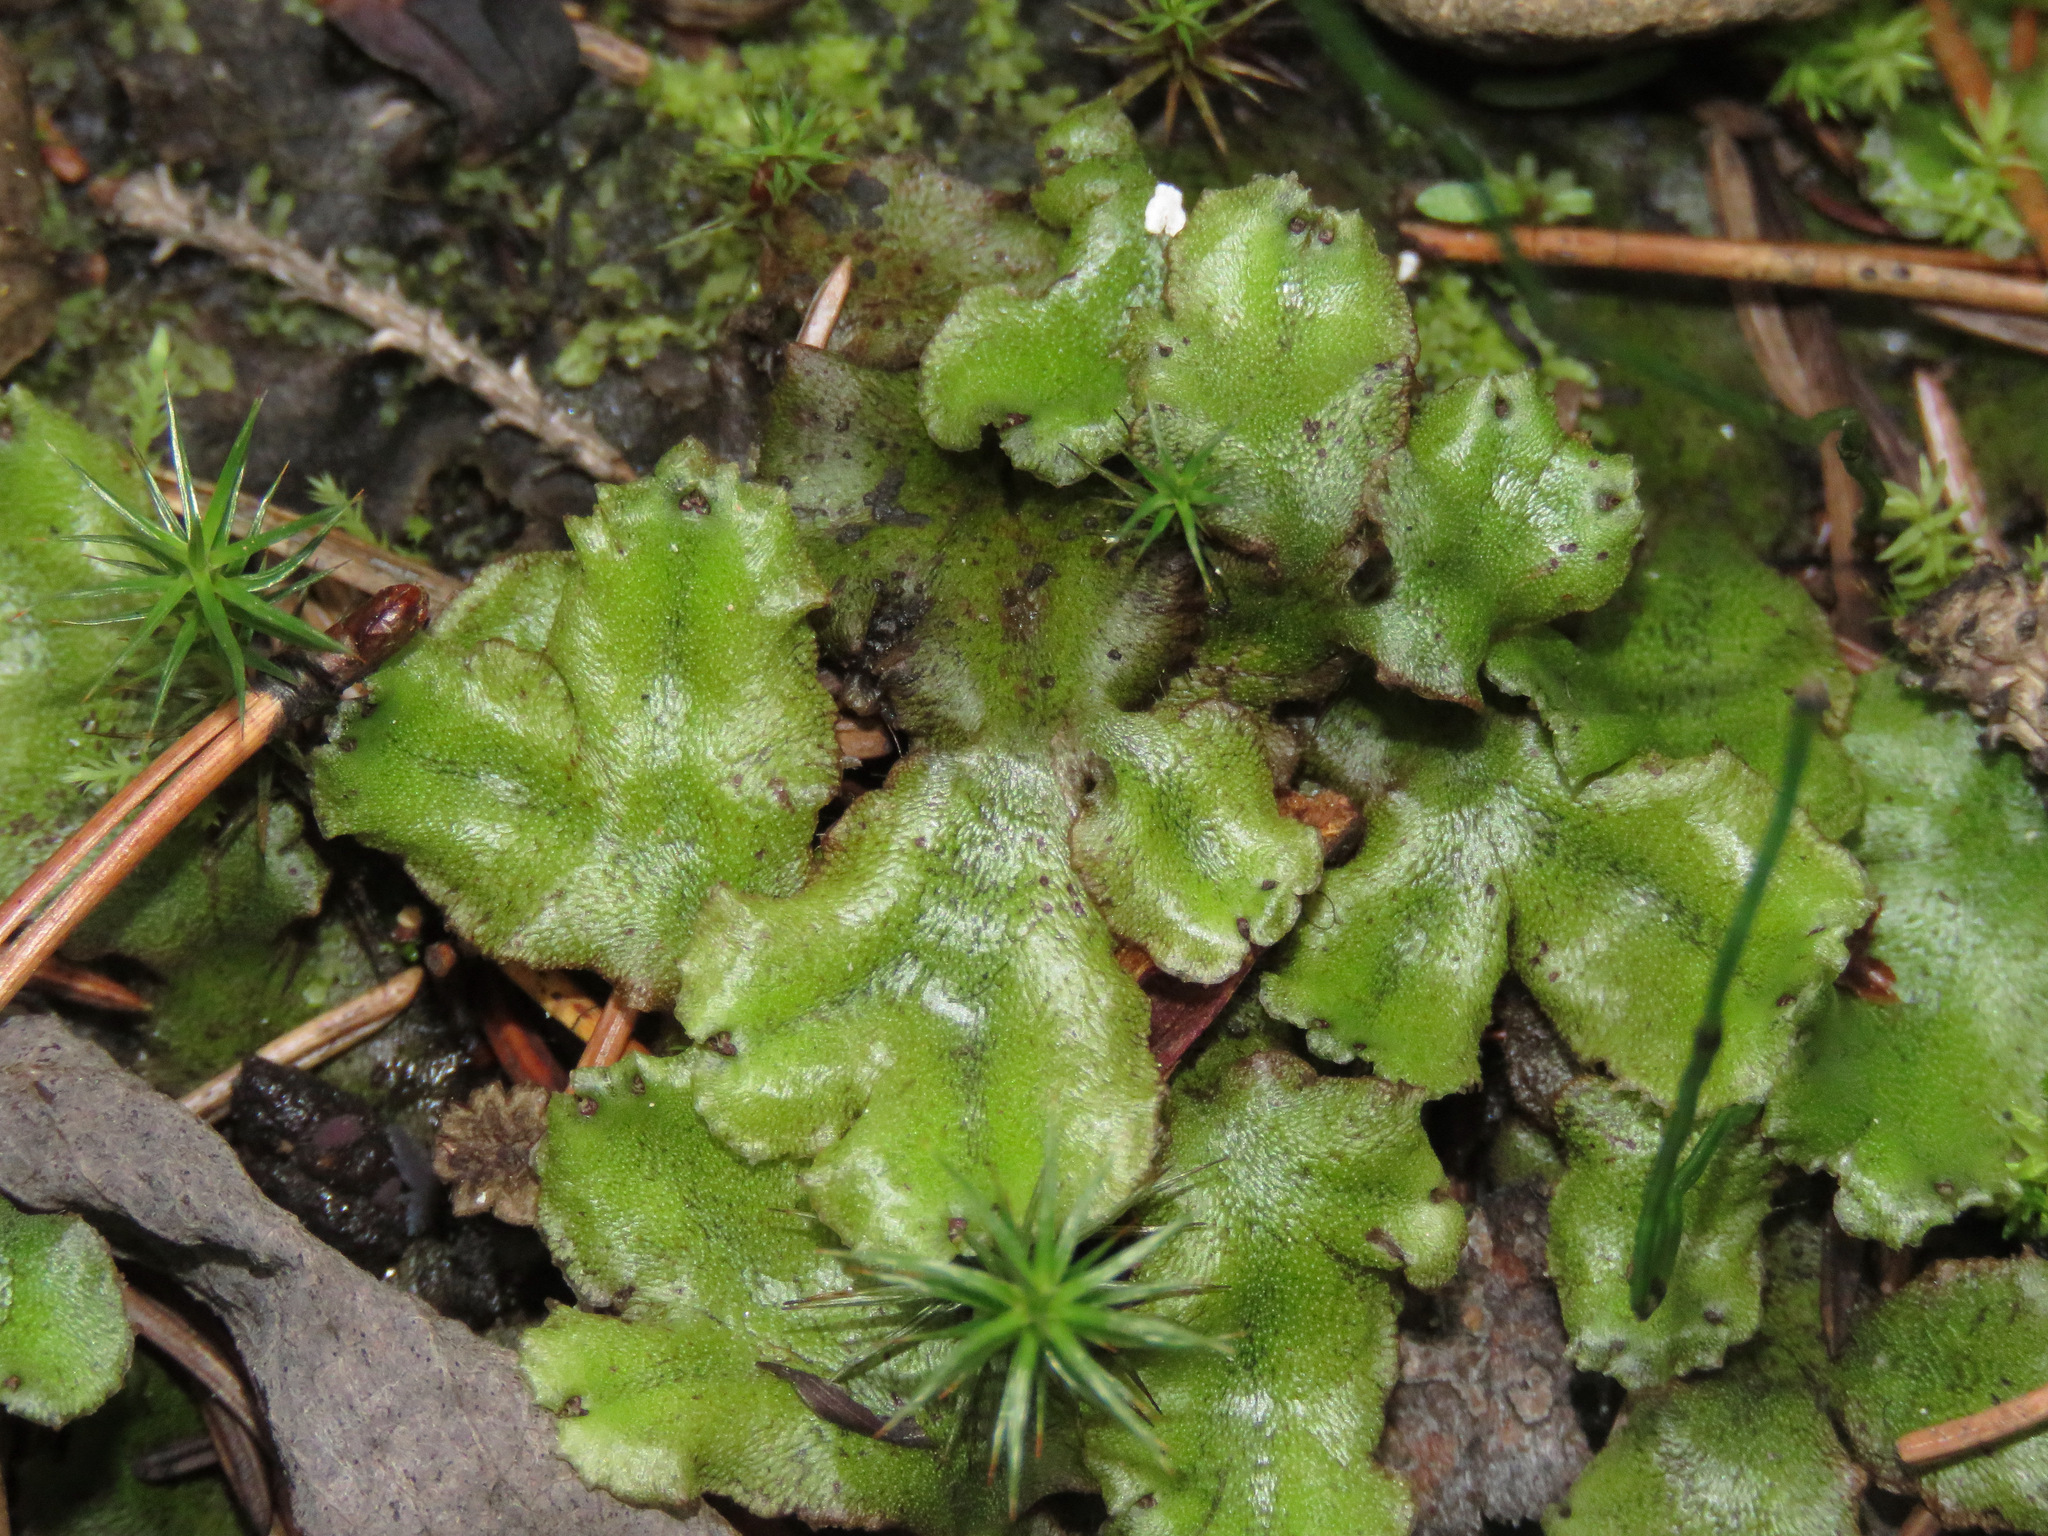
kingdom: Plantae
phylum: Marchantiophyta
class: Marchantiopsida
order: Marchantiales
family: Marchantiaceae
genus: Marchantia
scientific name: Marchantia polymorpha
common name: Common liverwort
